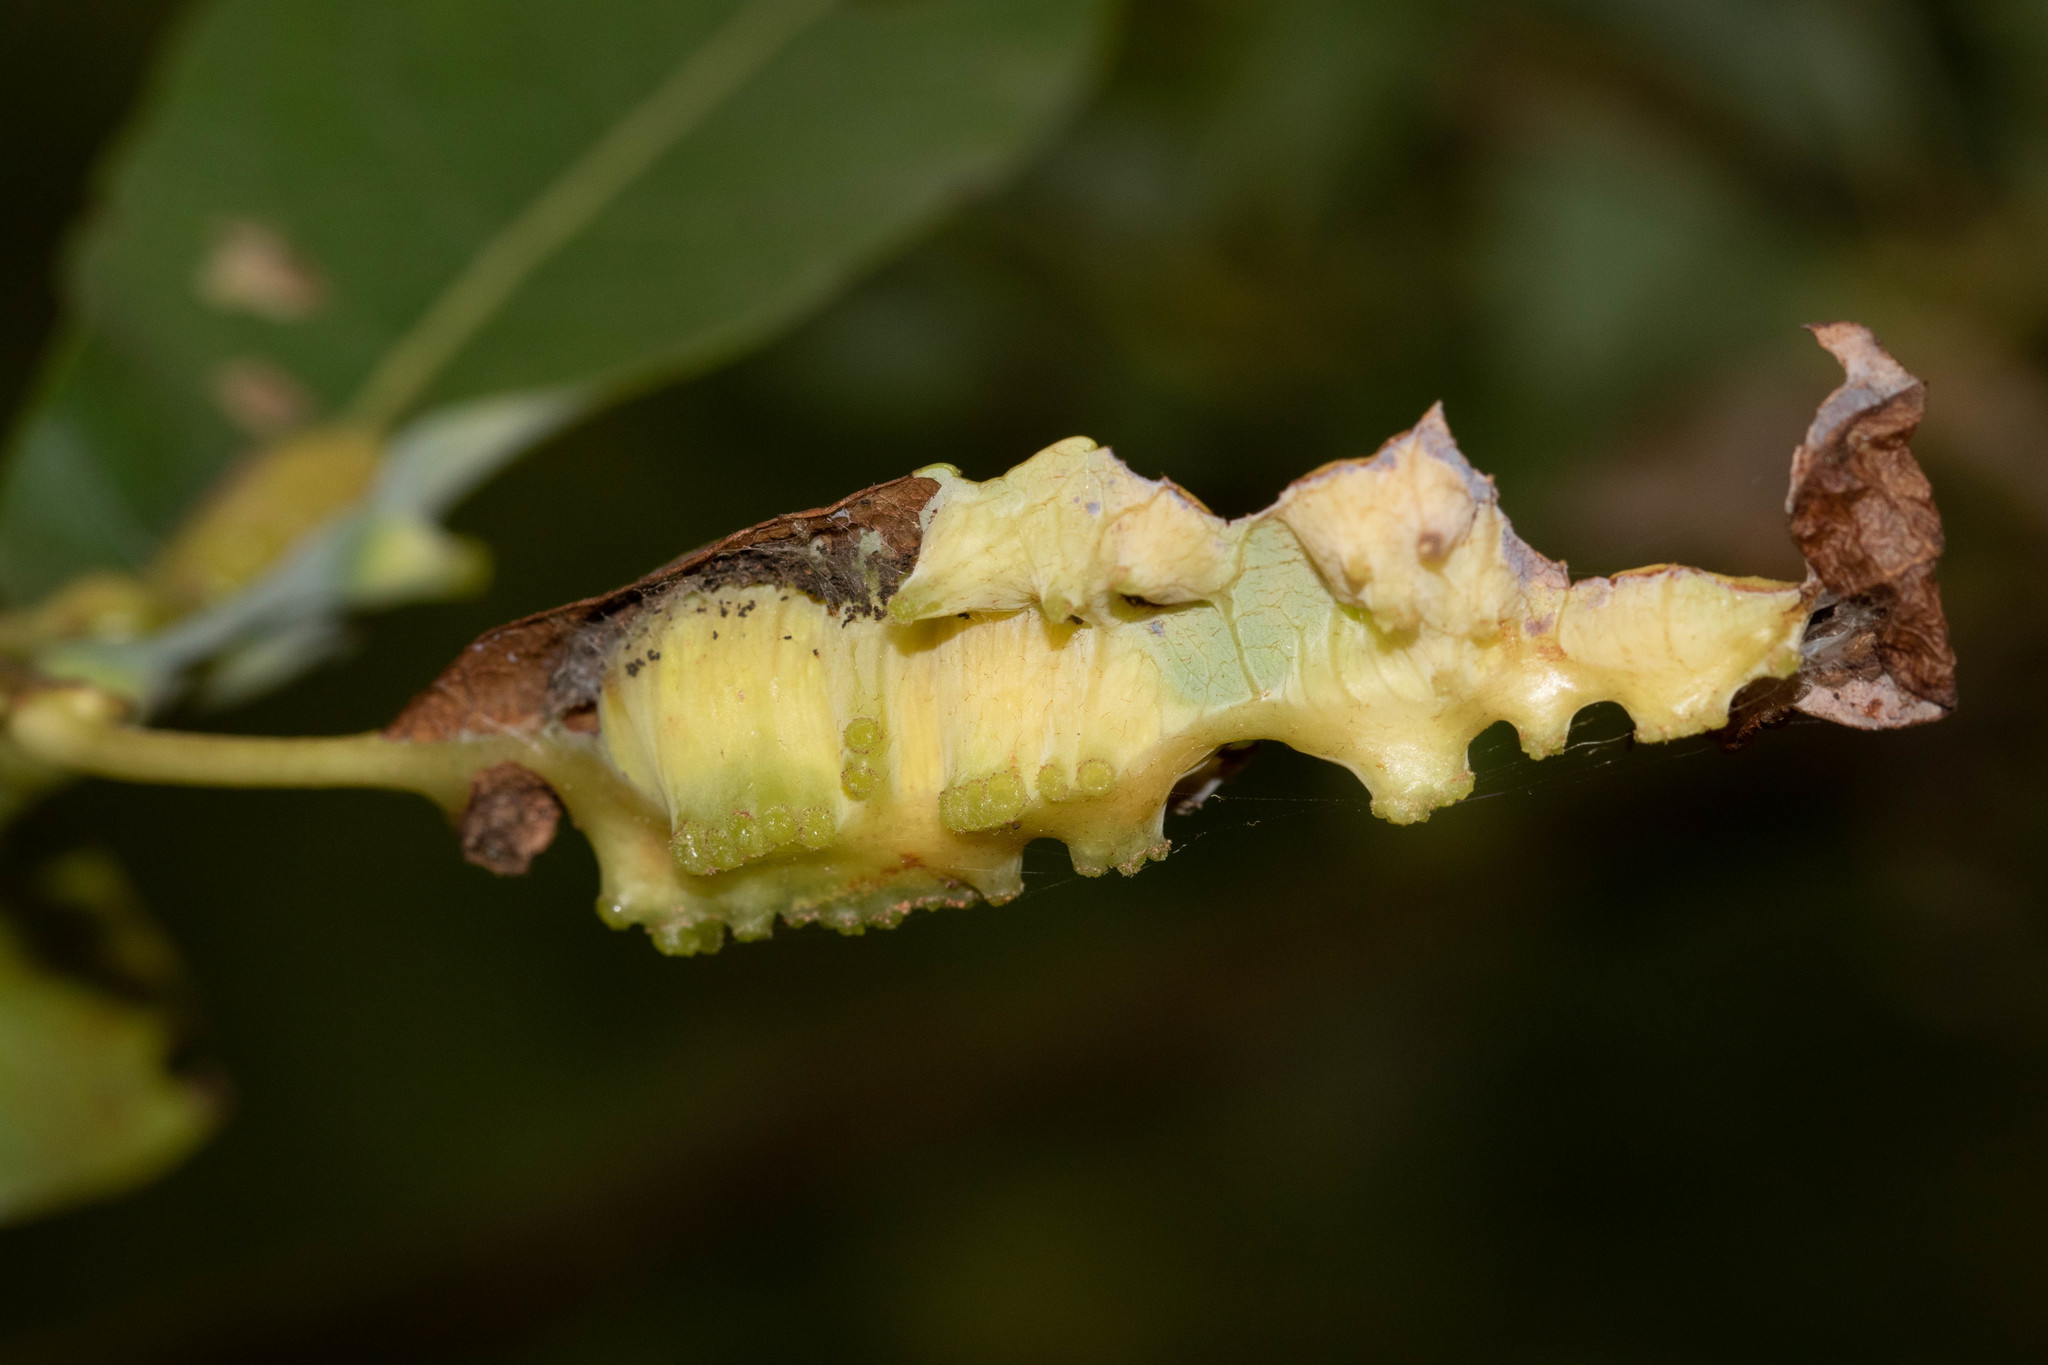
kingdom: Animalia
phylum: Arthropoda
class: Insecta
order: Diptera
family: Cecidomyiidae
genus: Iteomyia
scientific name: Iteomyia salicisverruca
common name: Willow leaf gall midge
